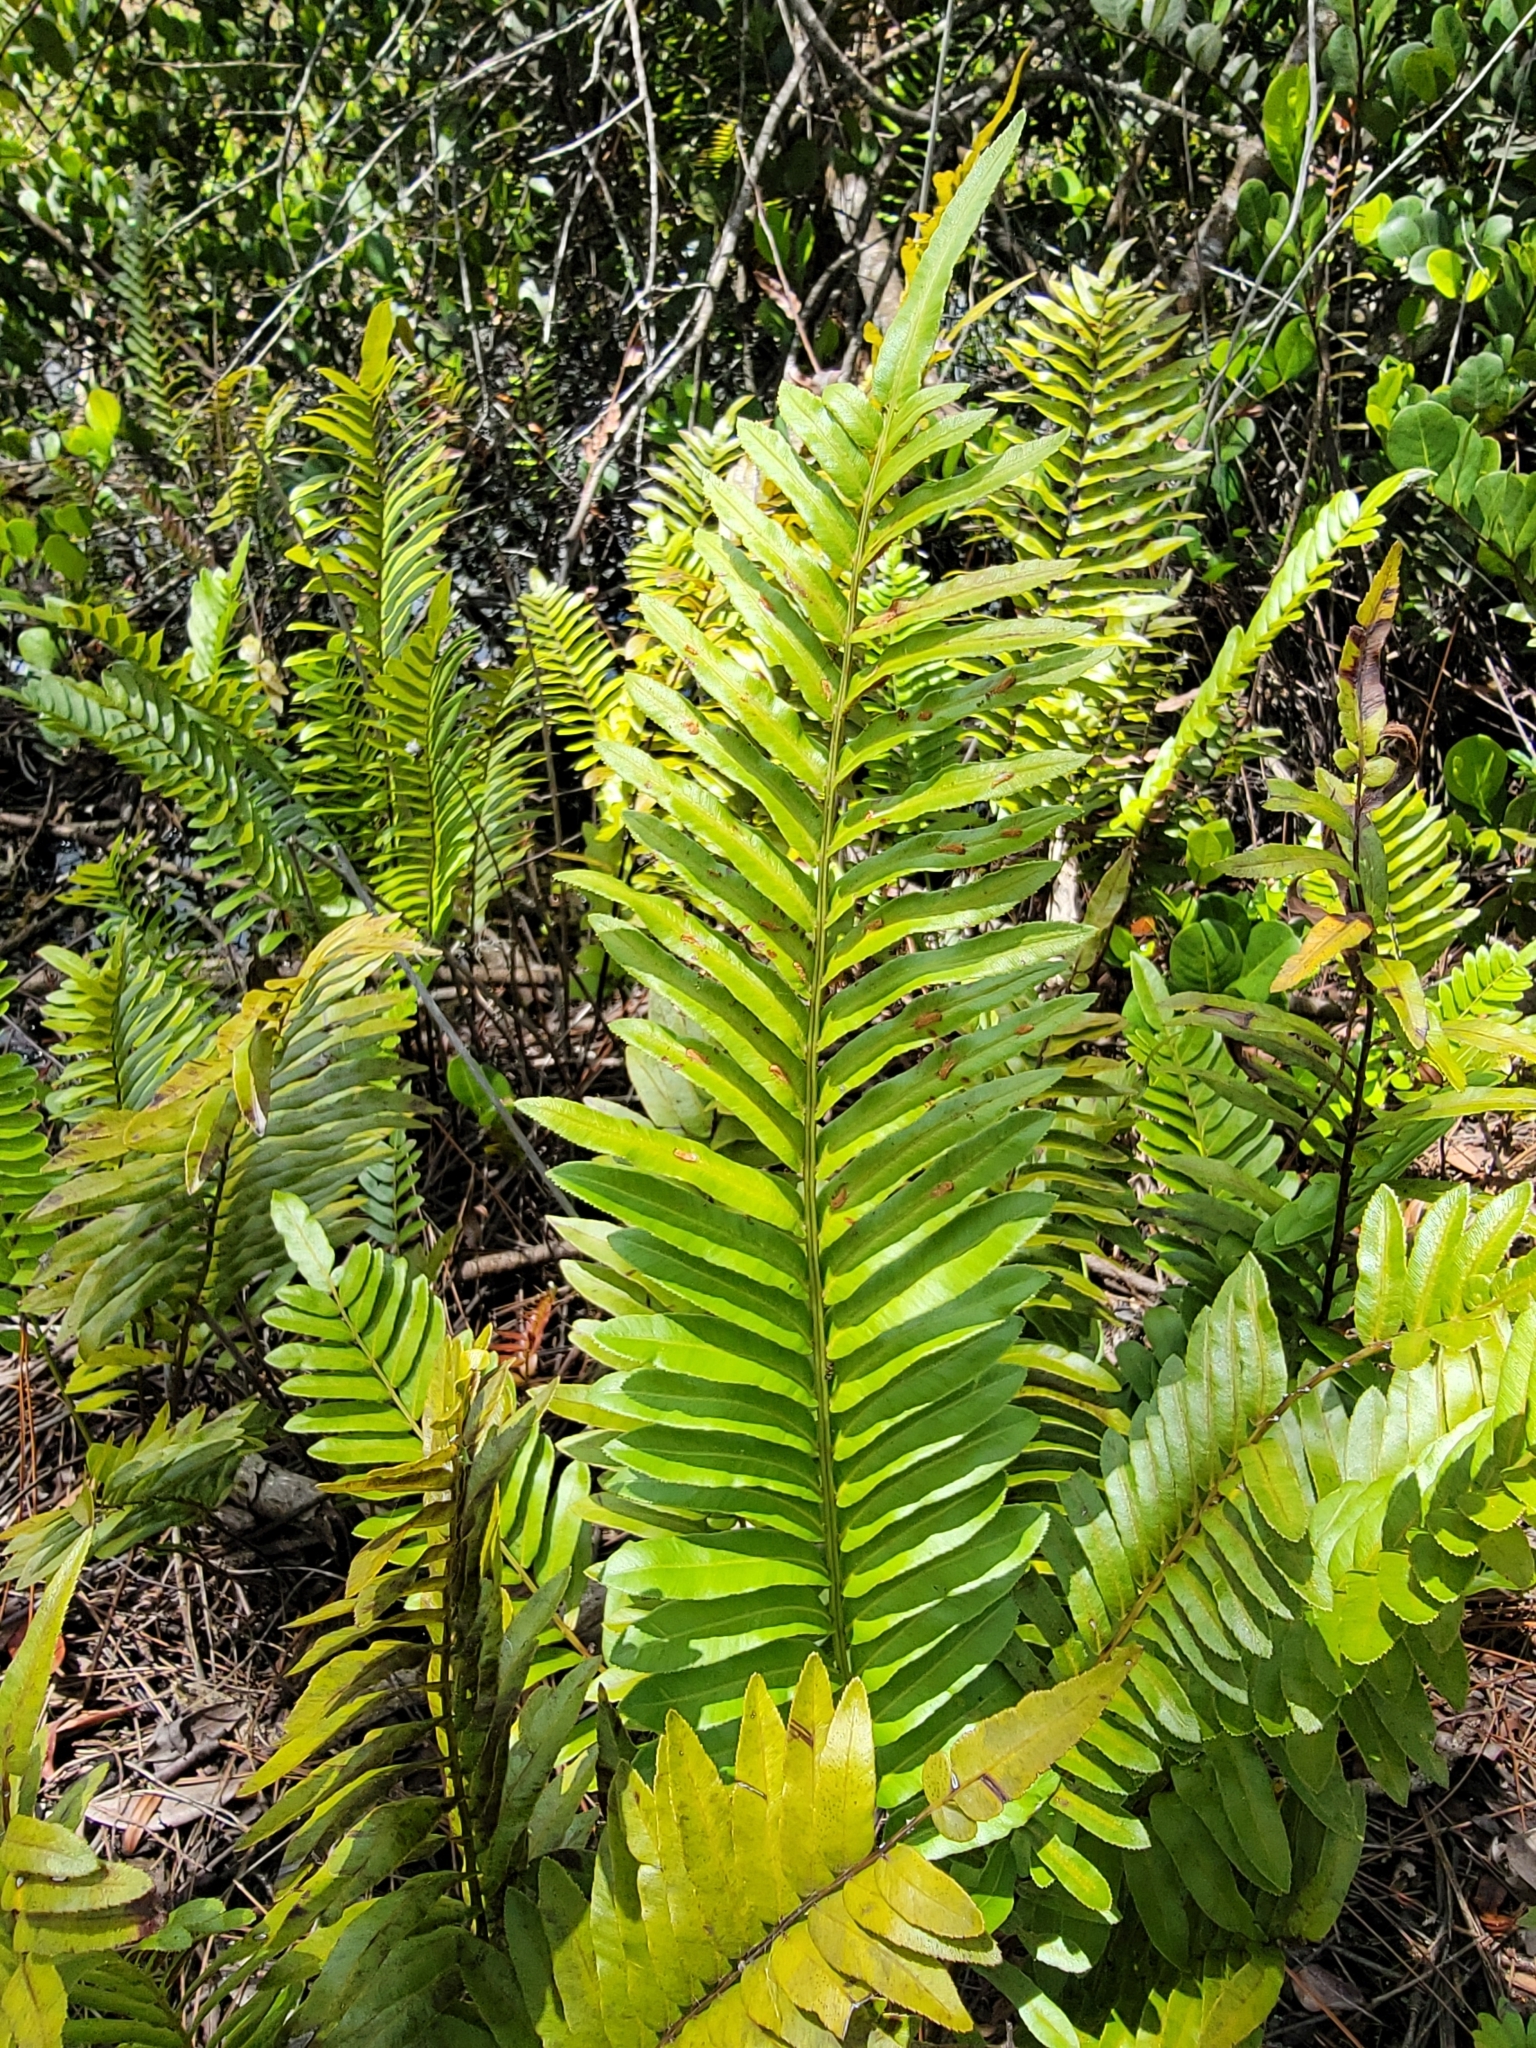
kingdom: Plantae
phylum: Tracheophyta
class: Polypodiopsida
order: Polypodiales
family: Blechnaceae
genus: Telmatoblechnum
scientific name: Telmatoblechnum serrulatum
